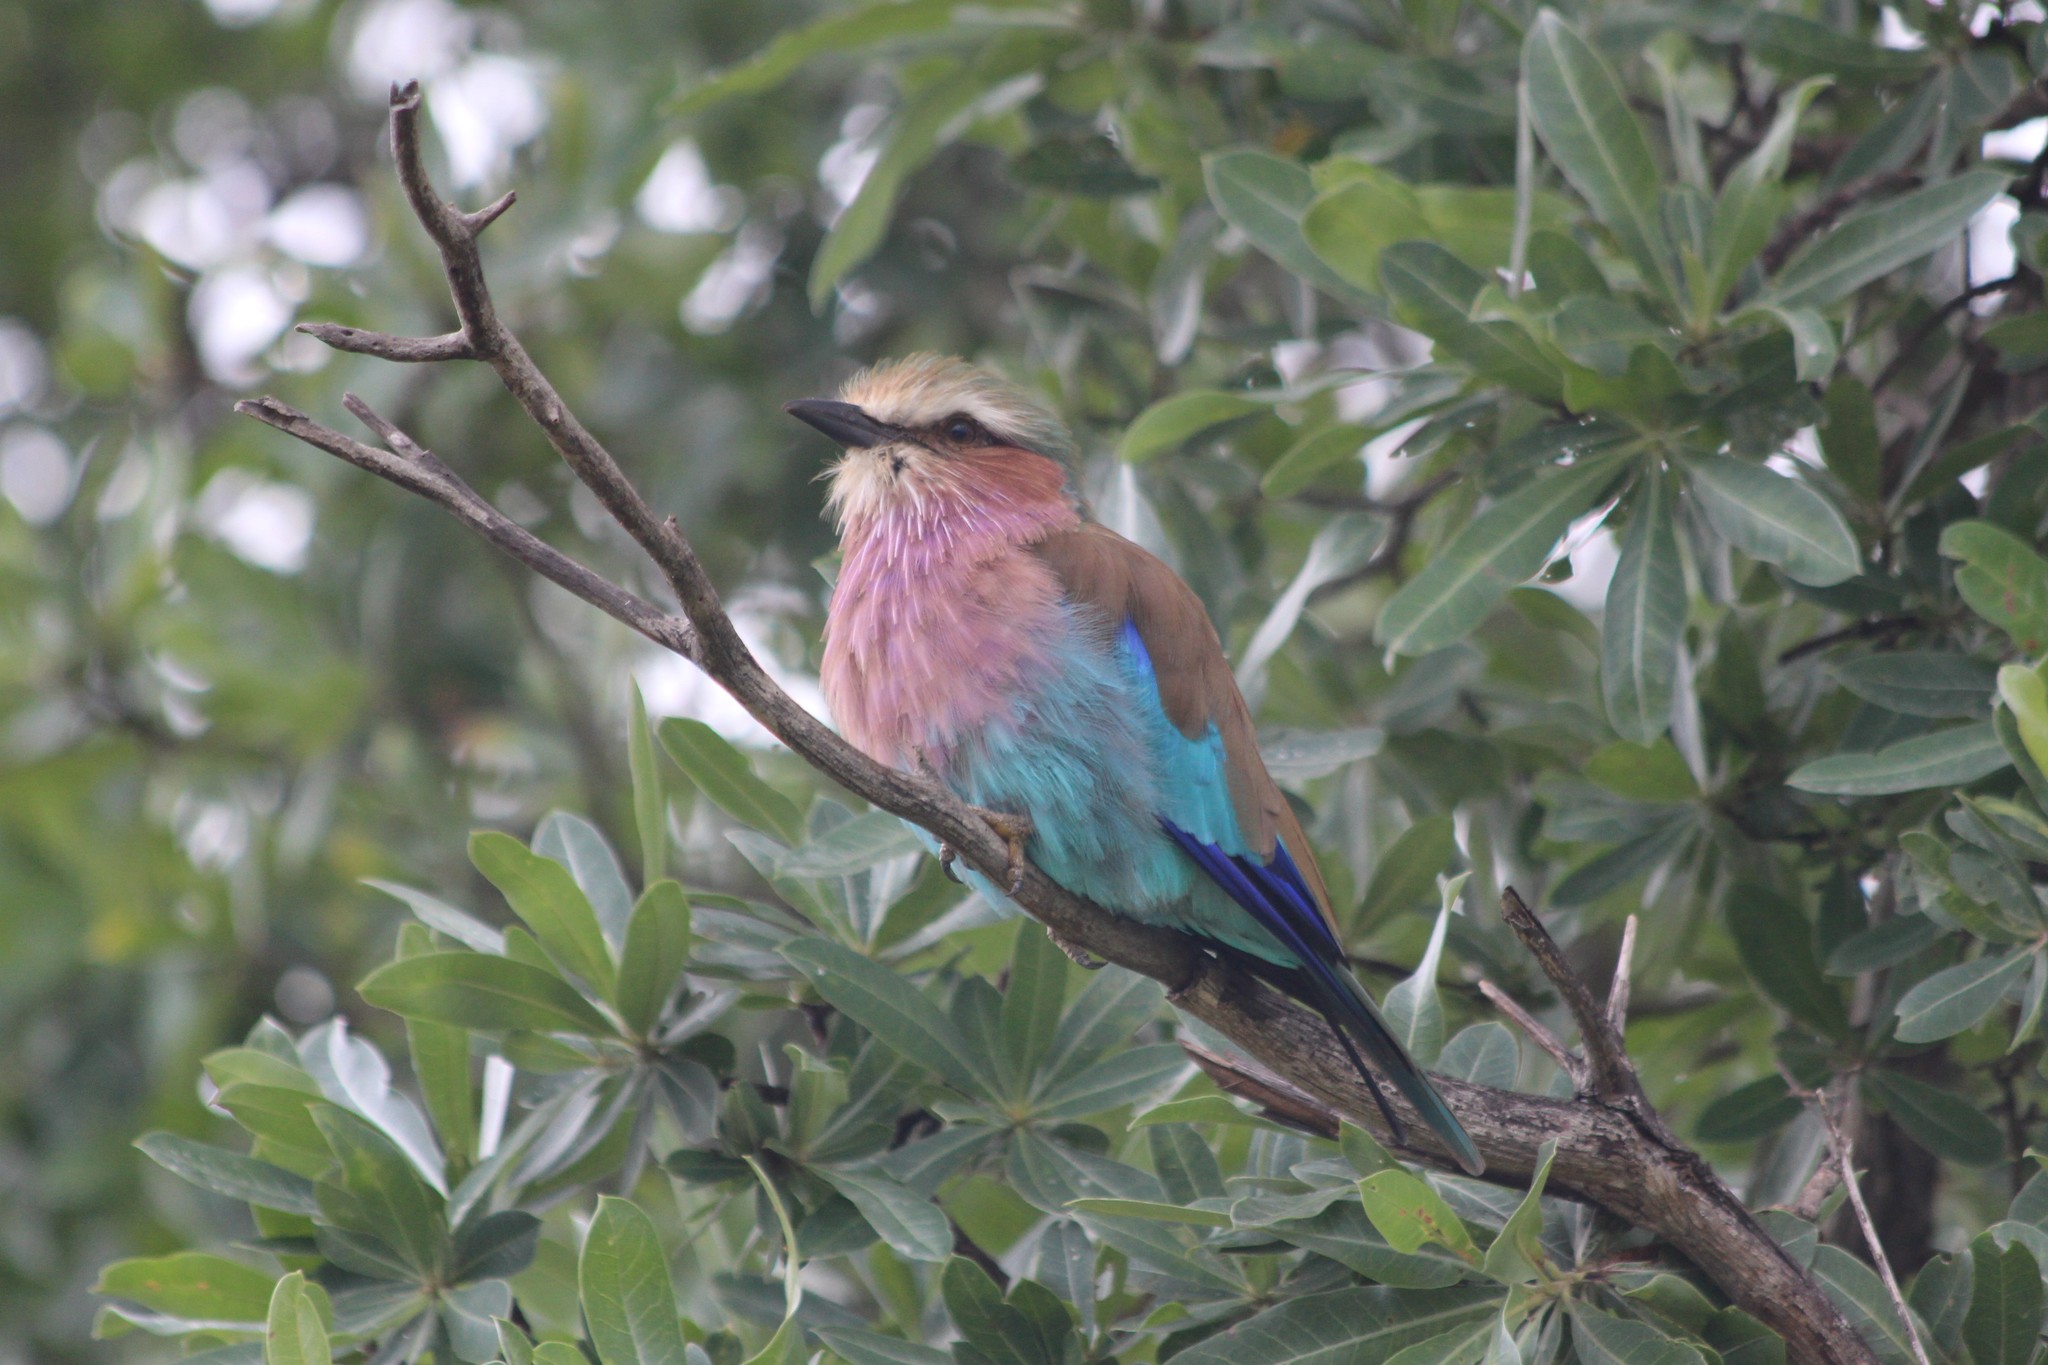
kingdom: Animalia
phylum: Chordata
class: Aves
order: Coraciiformes
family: Coraciidae
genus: Coracias
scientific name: Coracias caudatus
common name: Lilac-breasted roller
